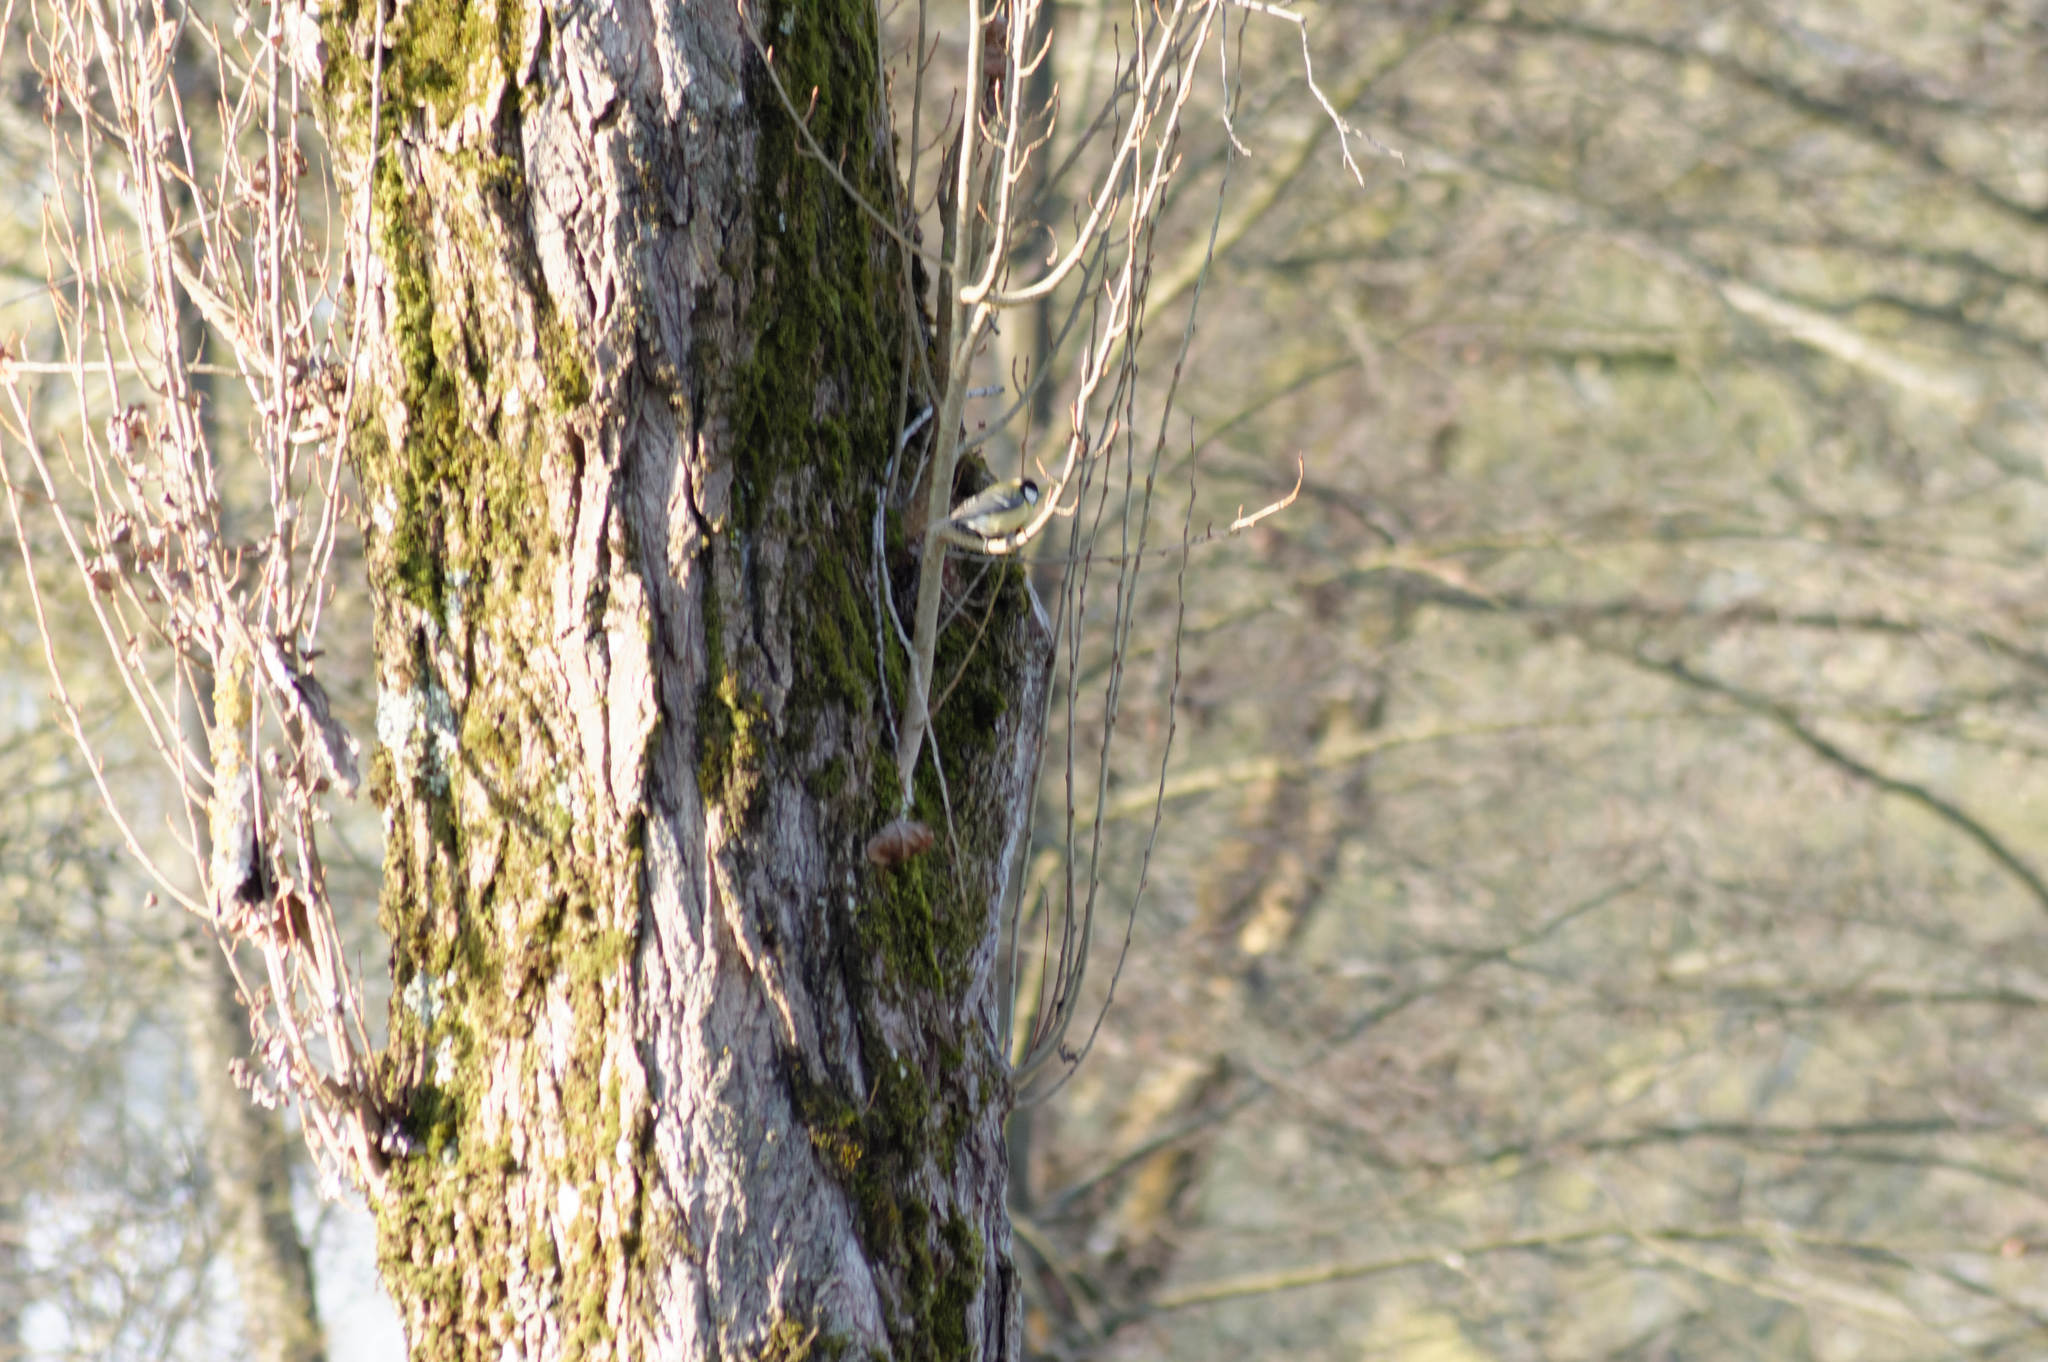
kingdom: Animalia
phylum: Chordata
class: Aves
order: Passeriformes
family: Paridae
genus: Parus
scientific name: Parus major
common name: Great tit
